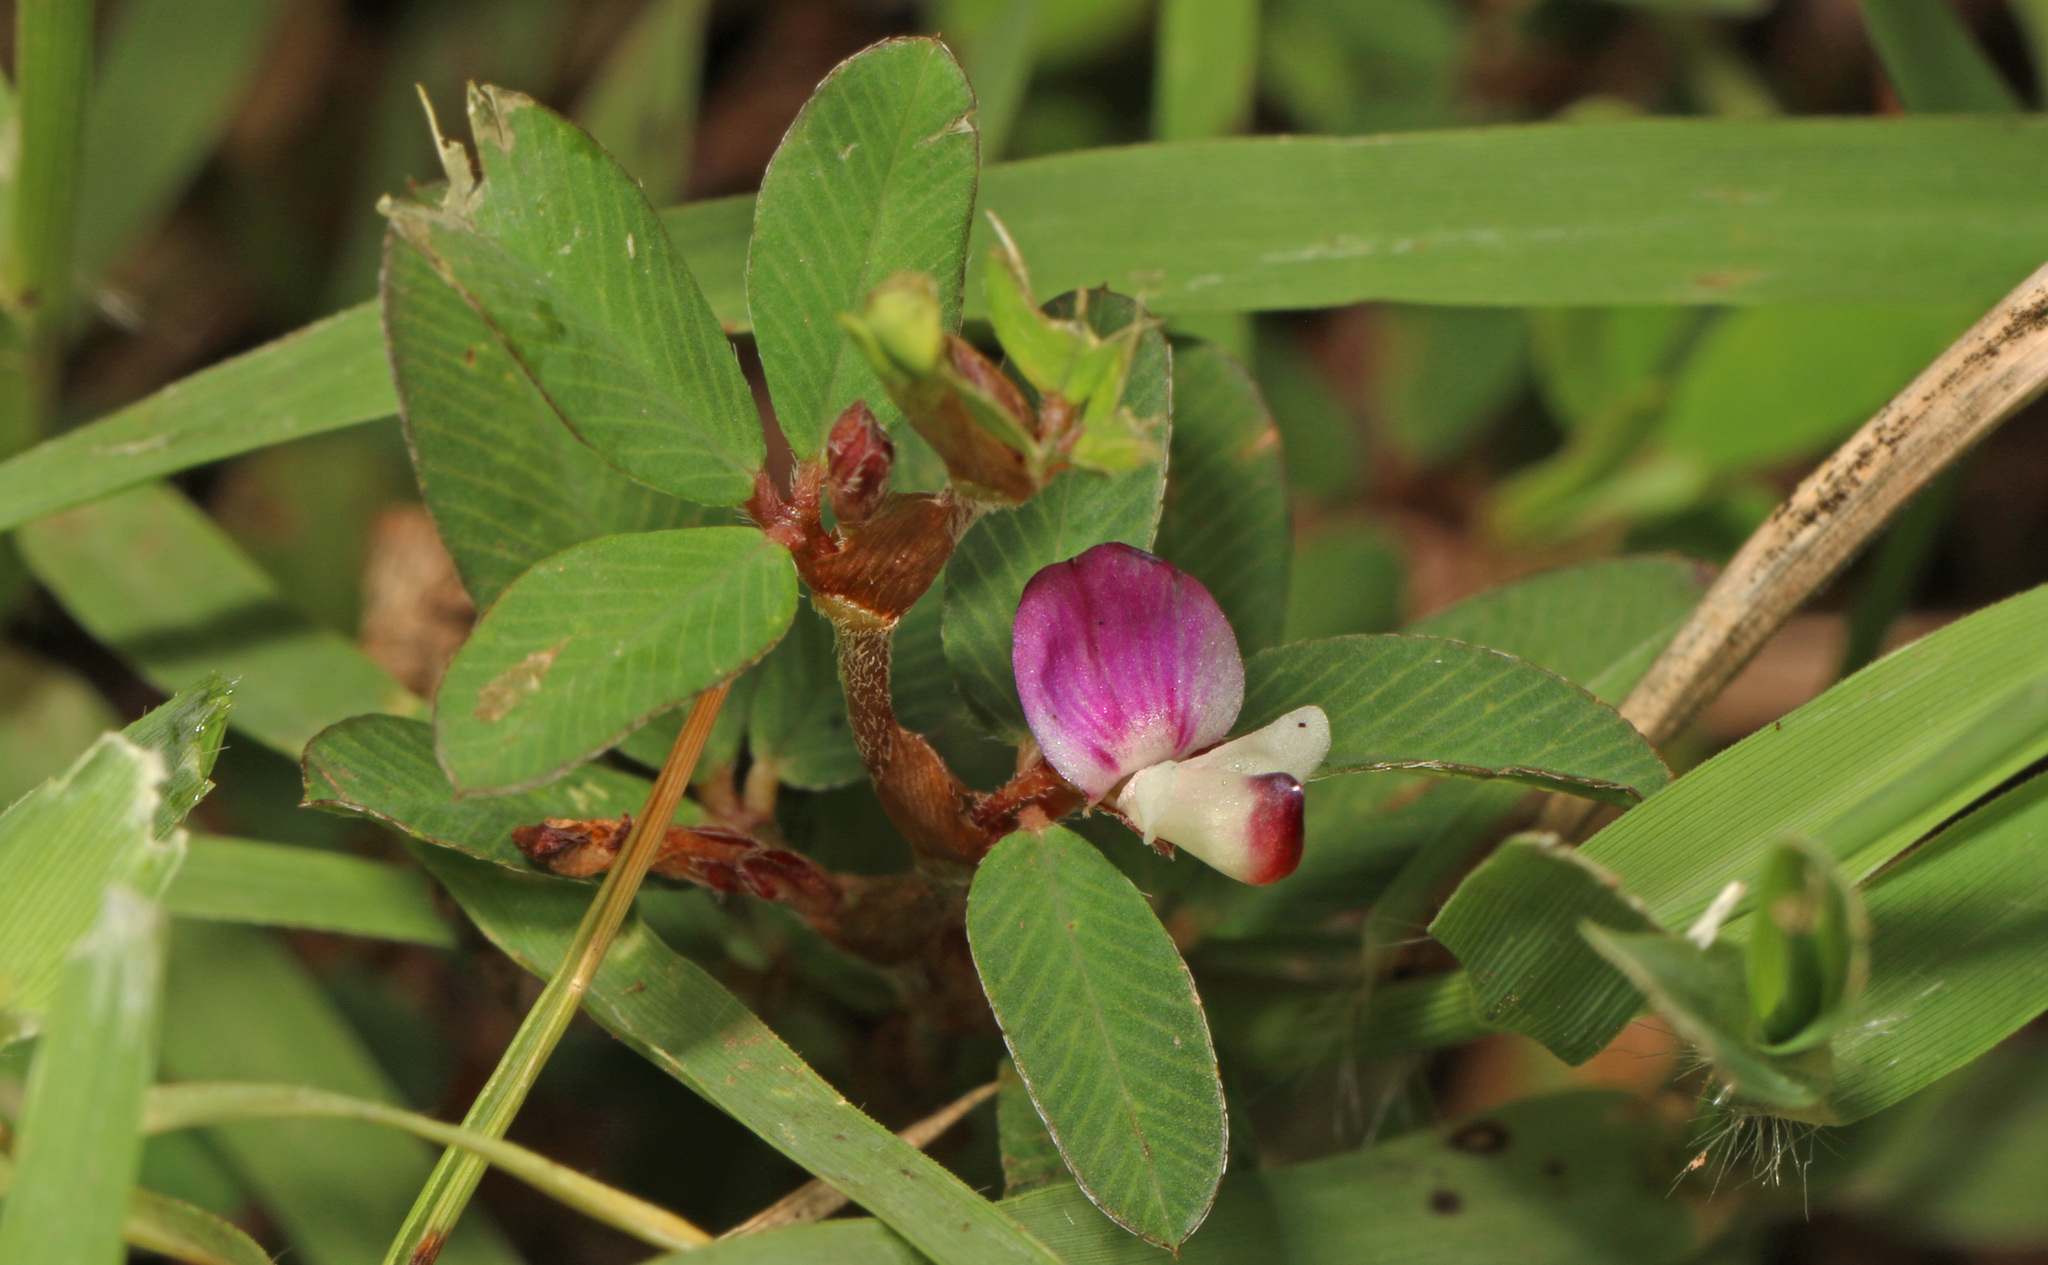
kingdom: Plantae
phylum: Tracheophyta
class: Magnoliopsida
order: Fabales
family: Fabaceae
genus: Kummerowia
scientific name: Kummerowia stipulacea
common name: Korean clover
